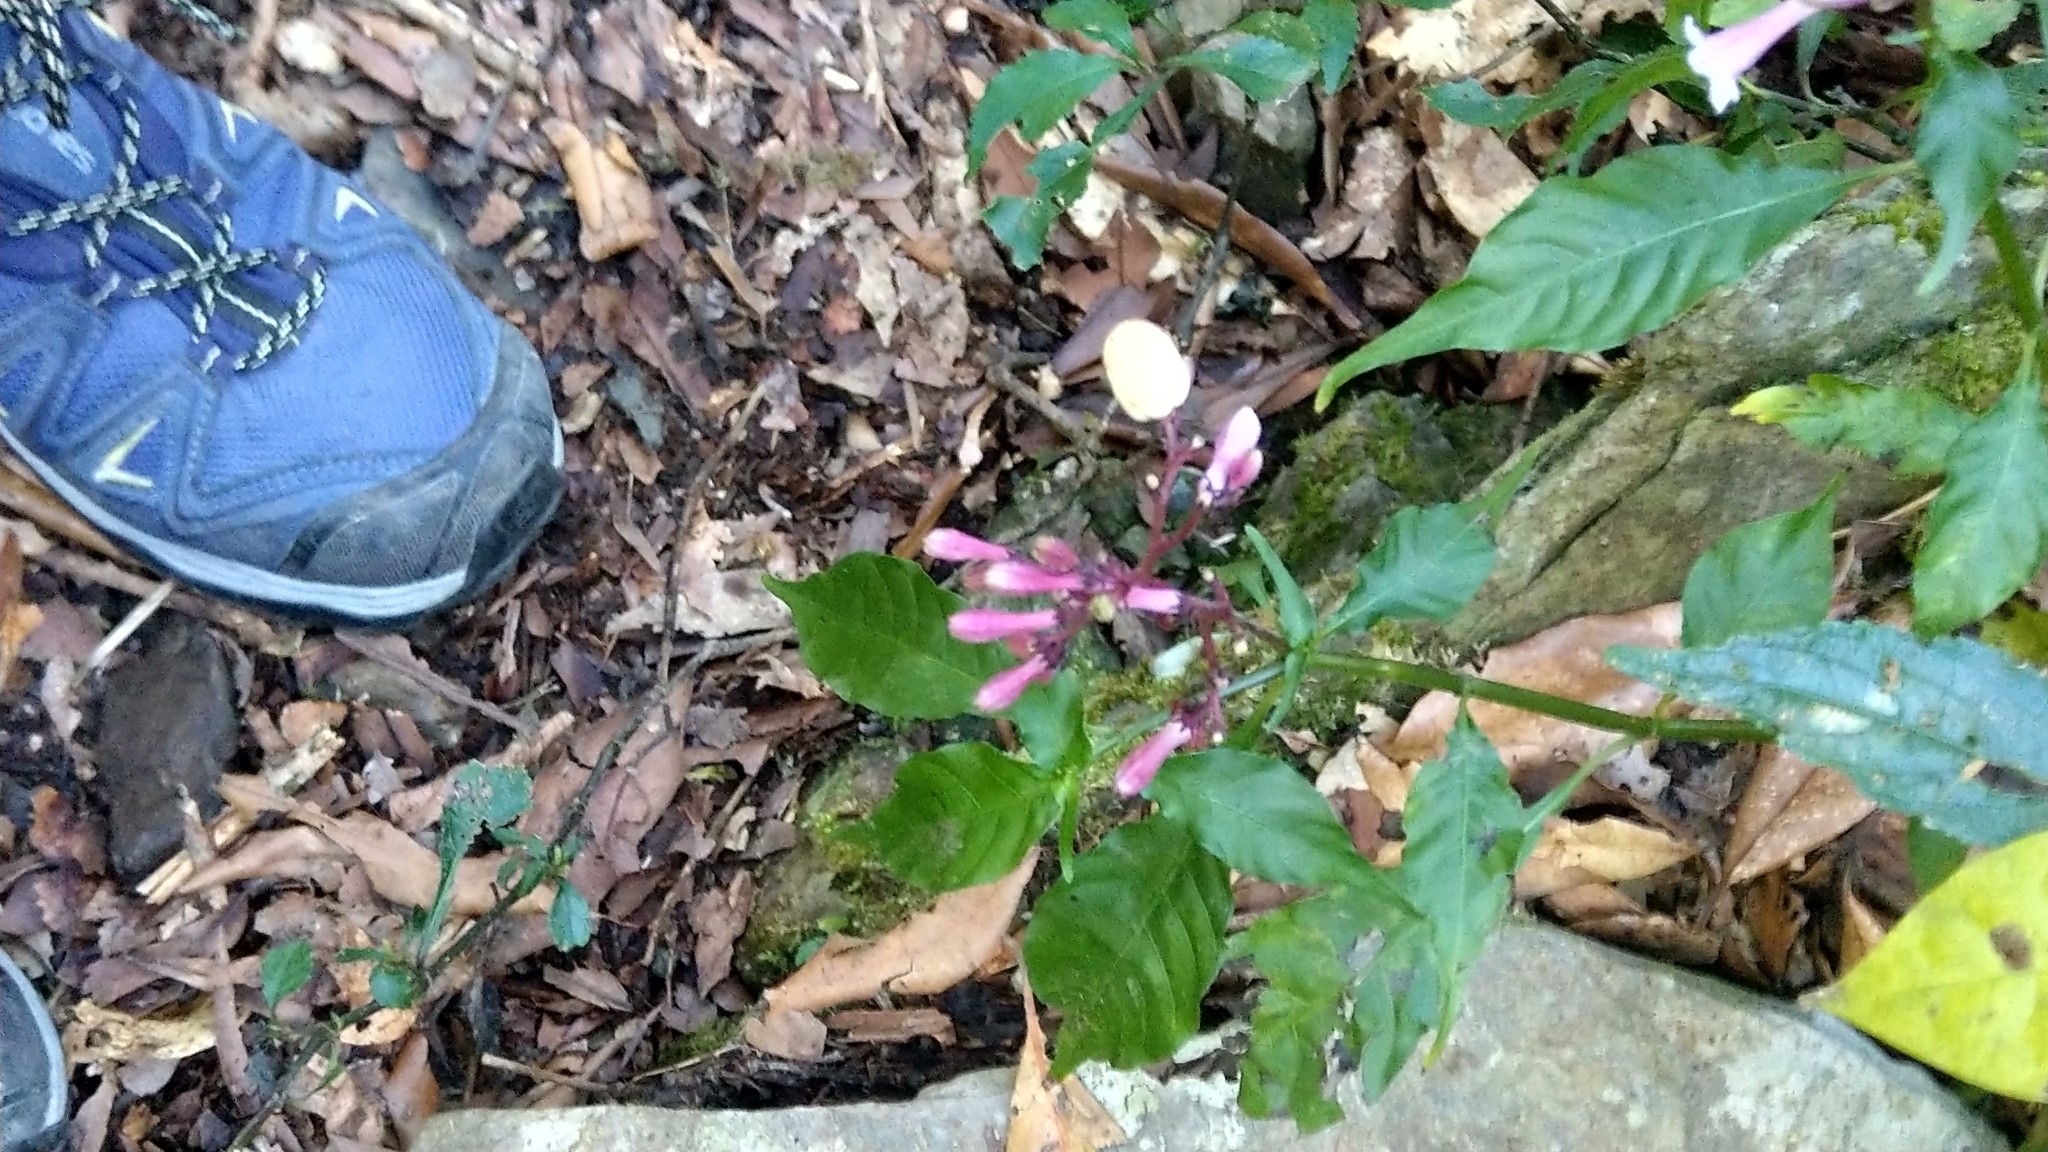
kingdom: Plantae
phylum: Tracheophyta
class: Magnoliopsida
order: Gentianales
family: Rubiaceae
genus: Ophiorrhiza
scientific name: Ophiorrhiza japonica
